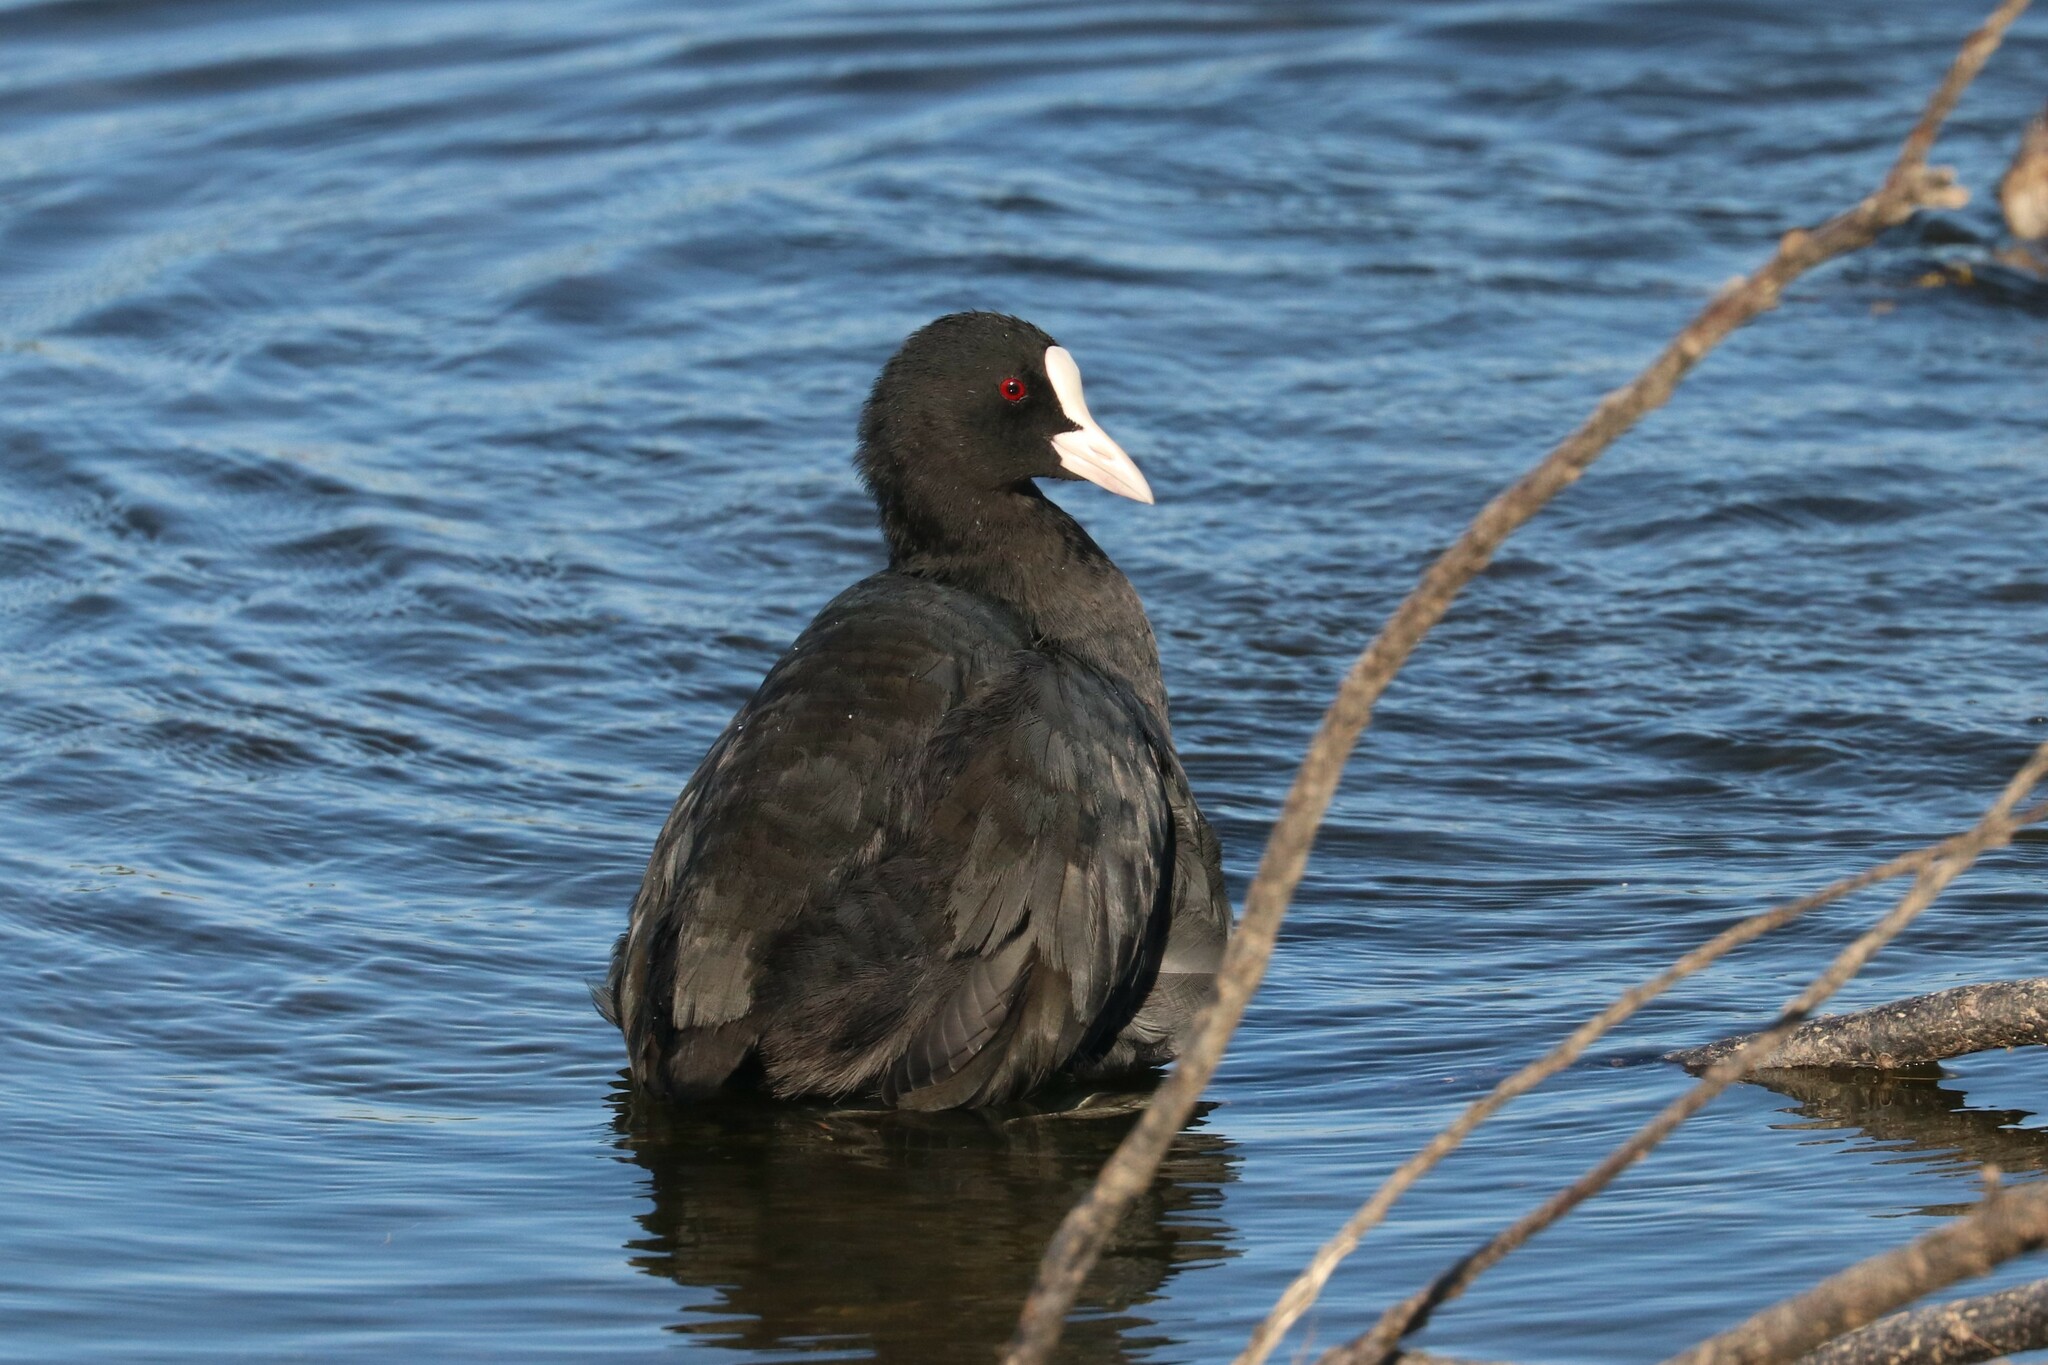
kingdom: Animalia
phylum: Chordata
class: Aves
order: Gruiformes
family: Rallidae
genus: Fulica
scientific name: Fulica atra
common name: Eurasian coot
